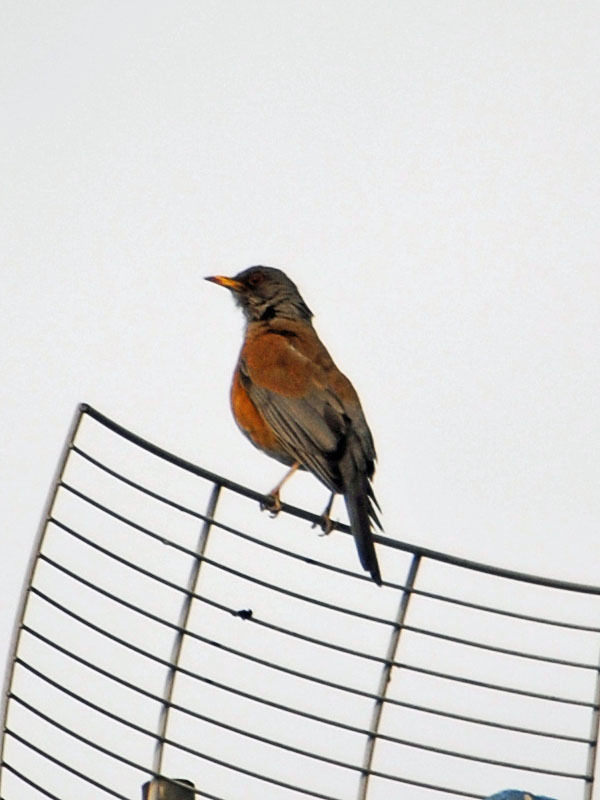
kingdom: Animalia
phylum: Chordata
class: Aves
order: Passeriformes
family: Turdidae
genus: Turdus
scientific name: Turdus rufopalliatus
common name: Rufous-backed robin
